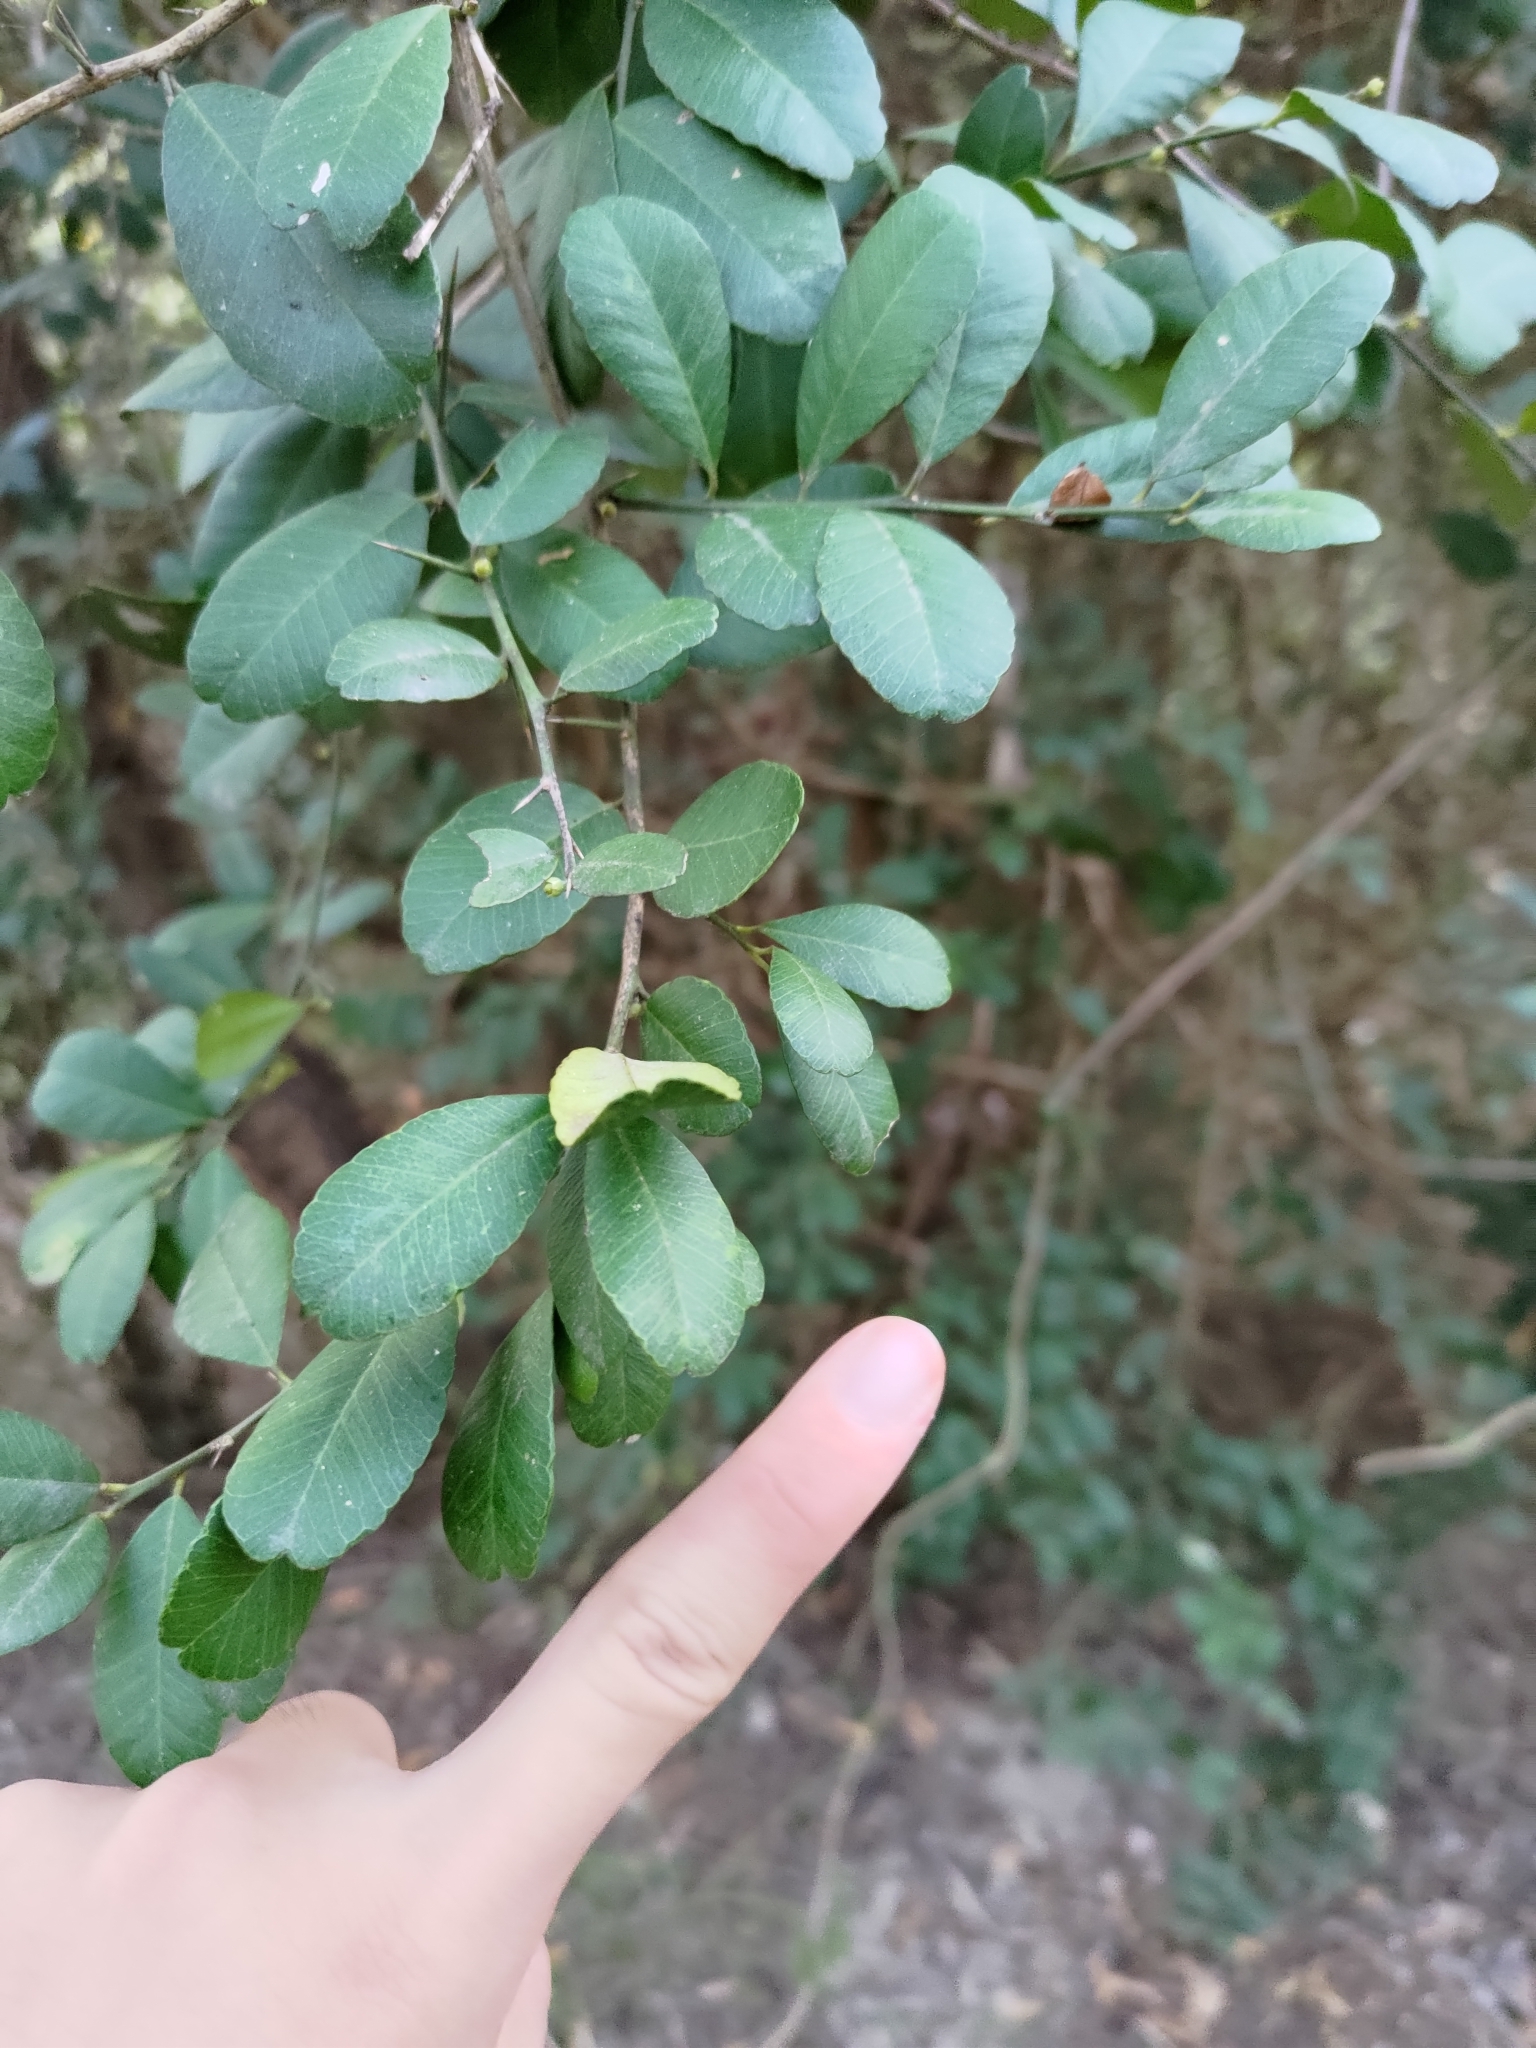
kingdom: Plantae
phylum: Tracheophyta
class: Magnoliopsida
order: Sapindales
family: Rutaceae
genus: Atalantia
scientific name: Atalantia buxifolia
